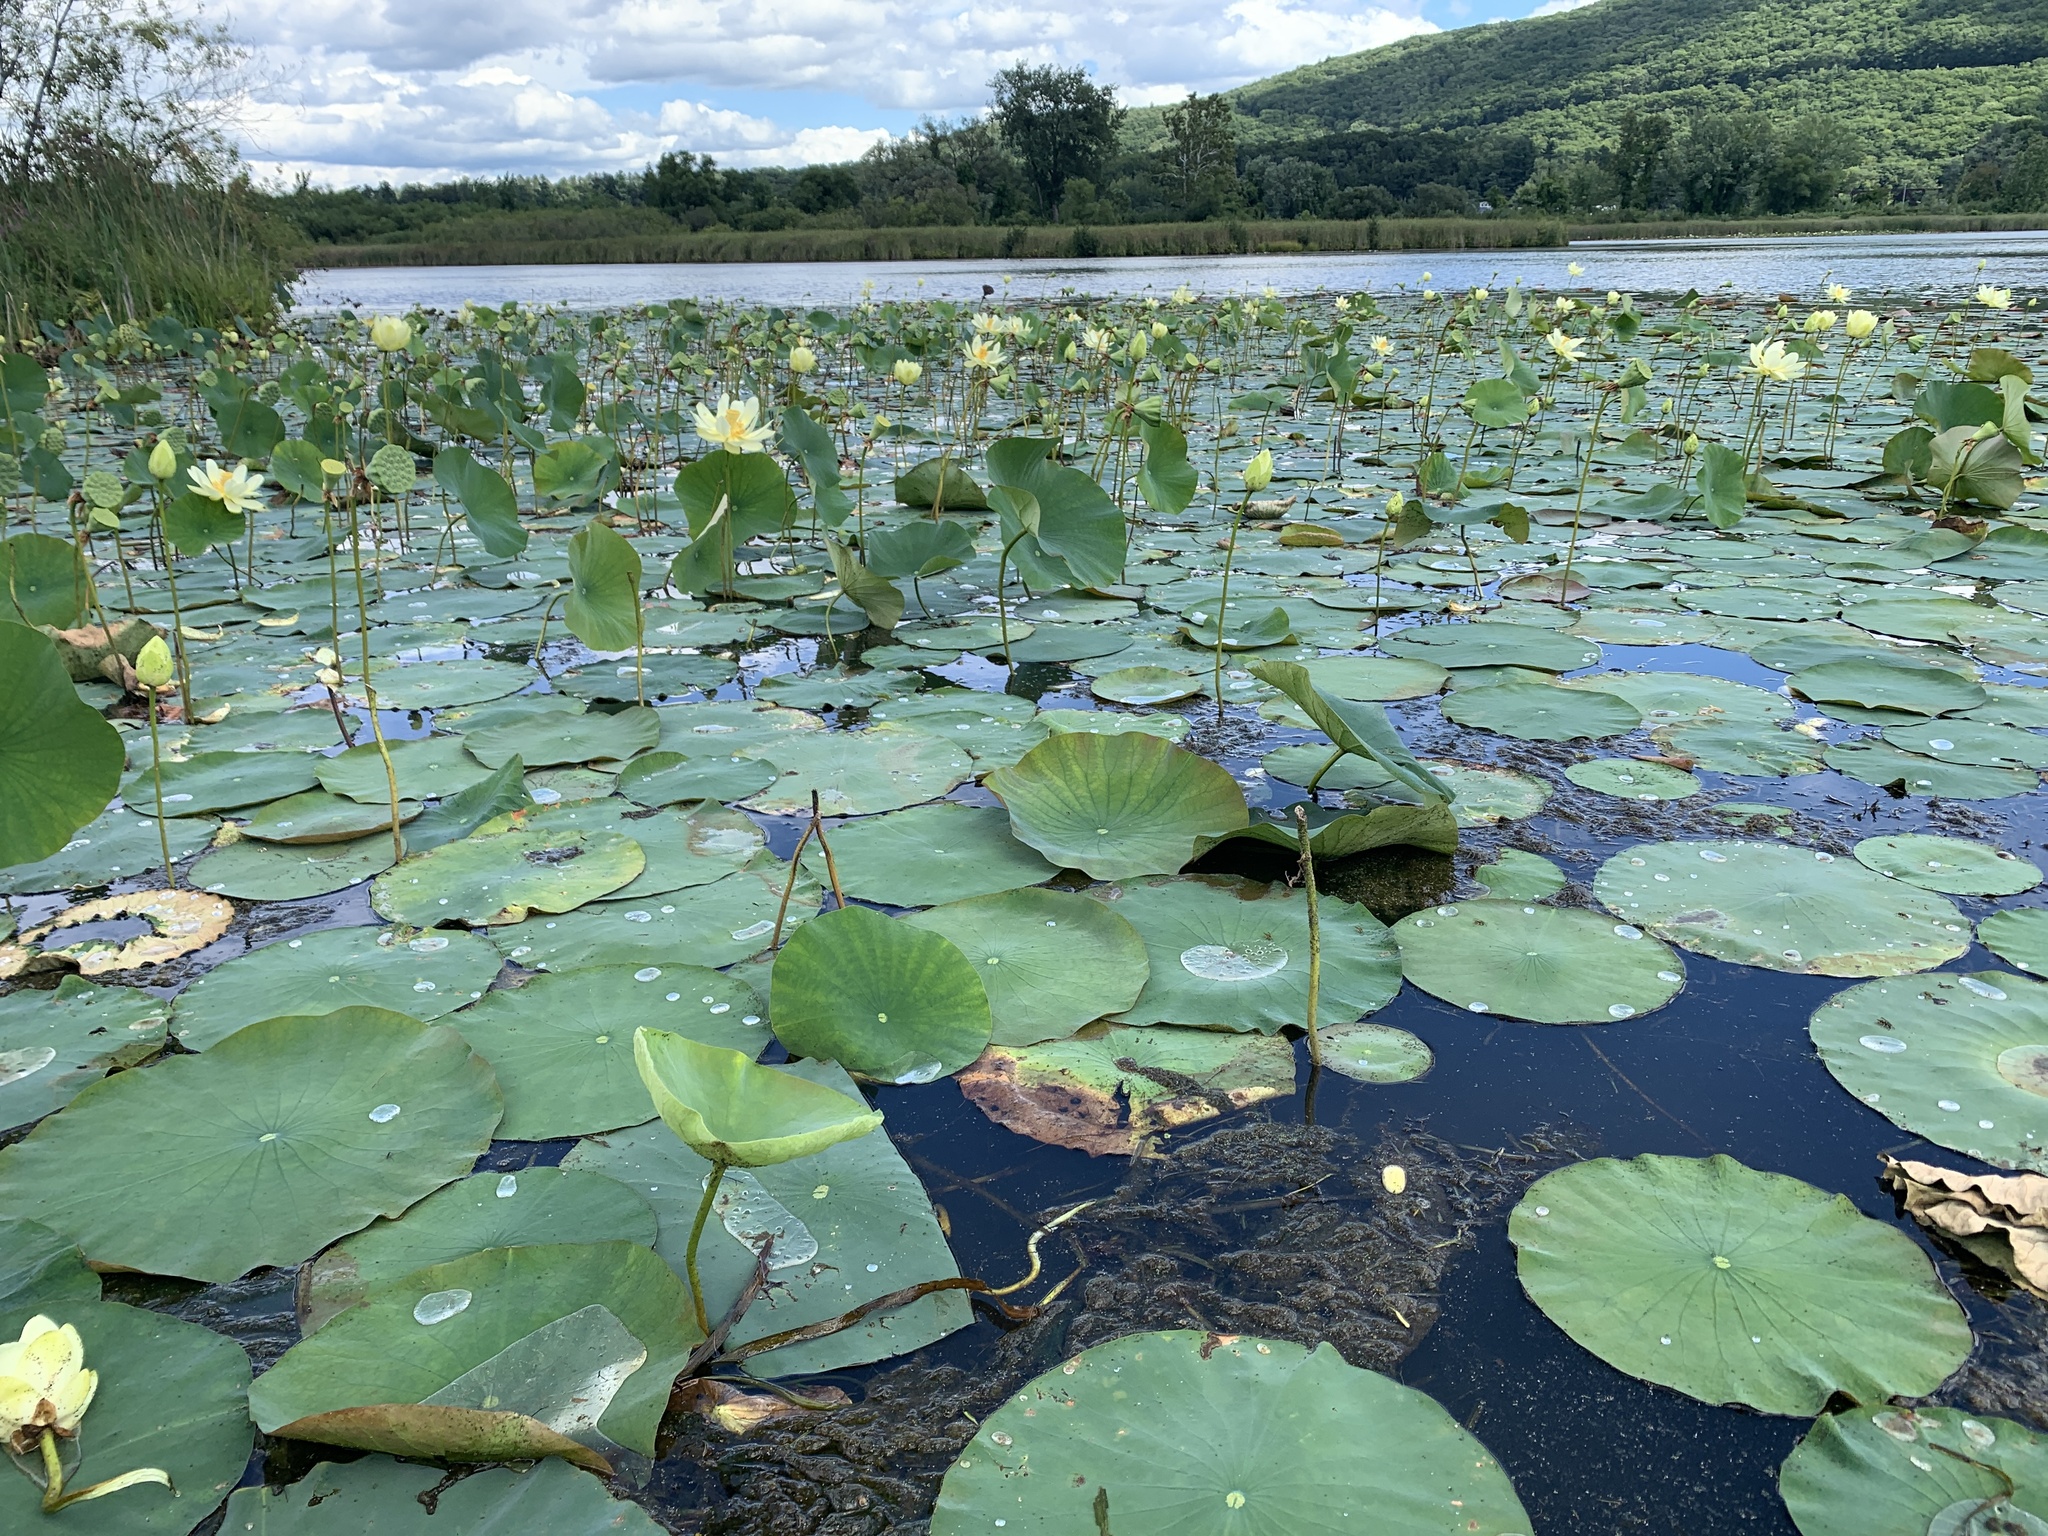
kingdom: Plantae
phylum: Tracheophyta
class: Magnoliopsida
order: Proteales
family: Nelumbonaceae
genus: Nelumbo
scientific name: Nelumbo lutea
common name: American lotus
